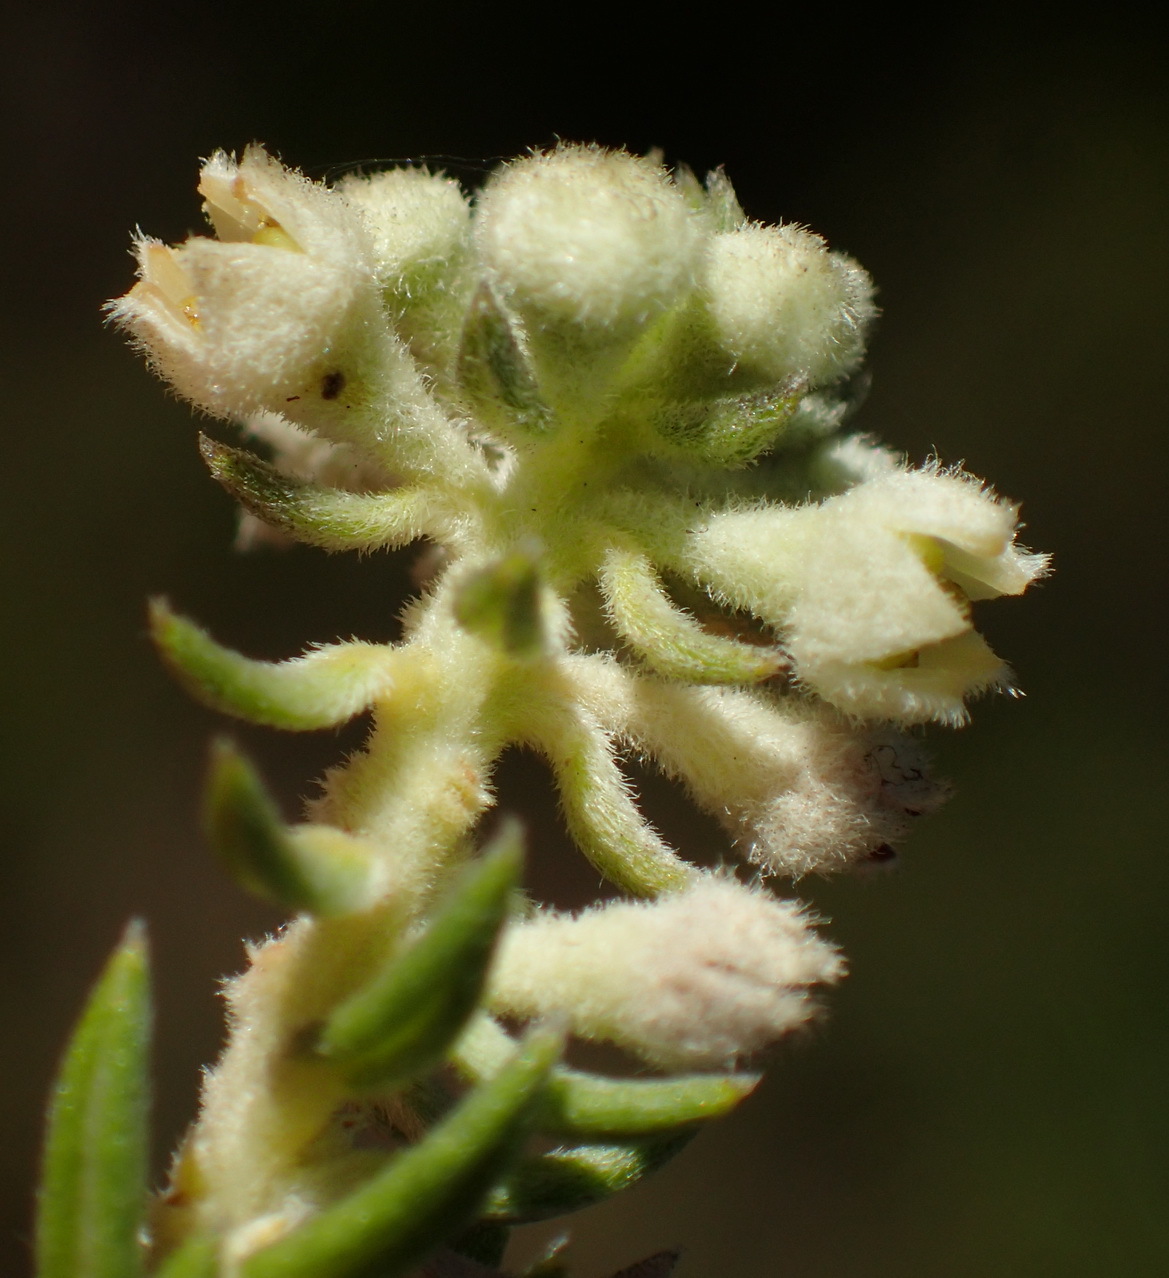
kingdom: Plantae
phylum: Tracheophyta
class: Magnoliopsida
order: Rosales
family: Rhamnaceae
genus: Phylica
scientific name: Phylica axillaris
